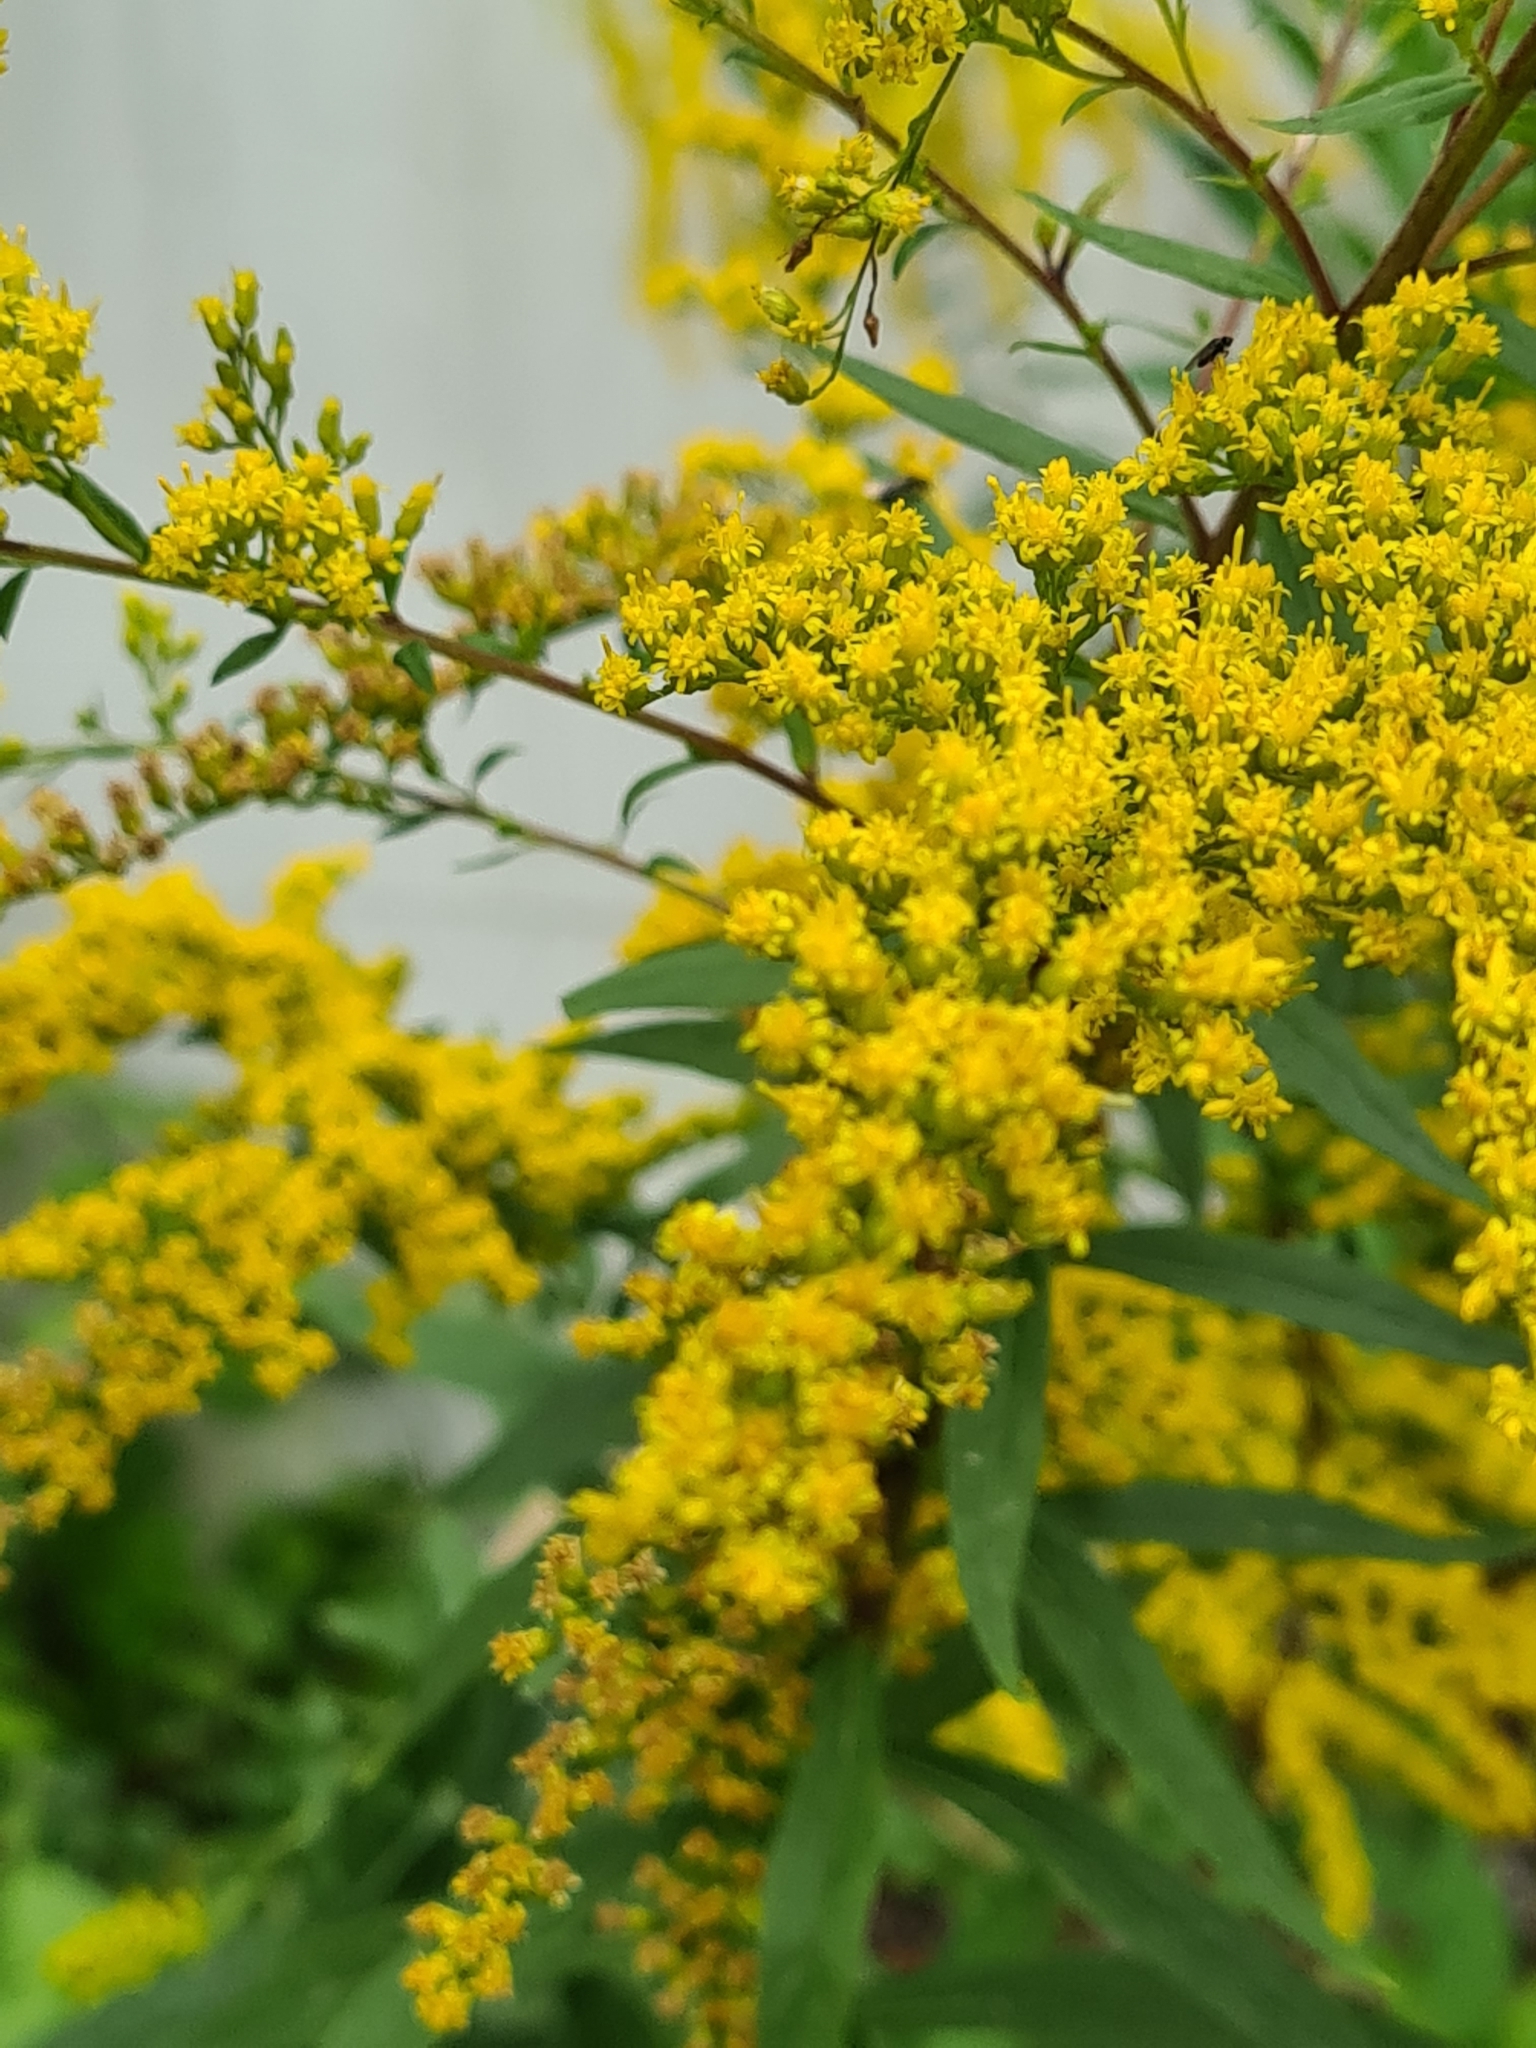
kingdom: Plantae
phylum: Tracheophyta
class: Magnoliopsida
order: Asterales
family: Asteraceae
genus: Solidago
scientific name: Solidago canadensis
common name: Canada goldenrod
